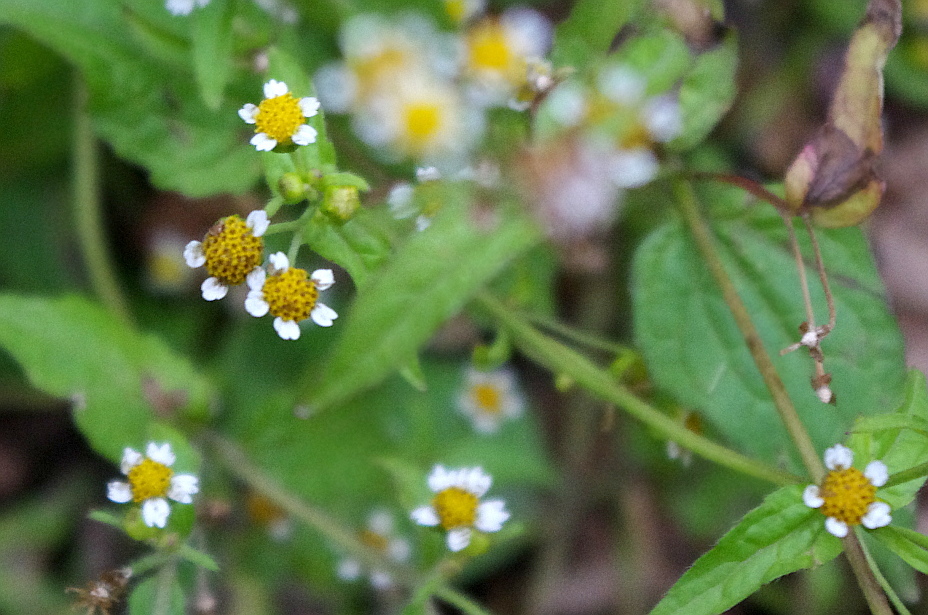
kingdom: Plantae
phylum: Tracheophyta
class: Magnoliopsida
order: Asterales
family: Asteraceae
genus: Galinsoga
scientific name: Galinsoga parviflora
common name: Gallant soldier
